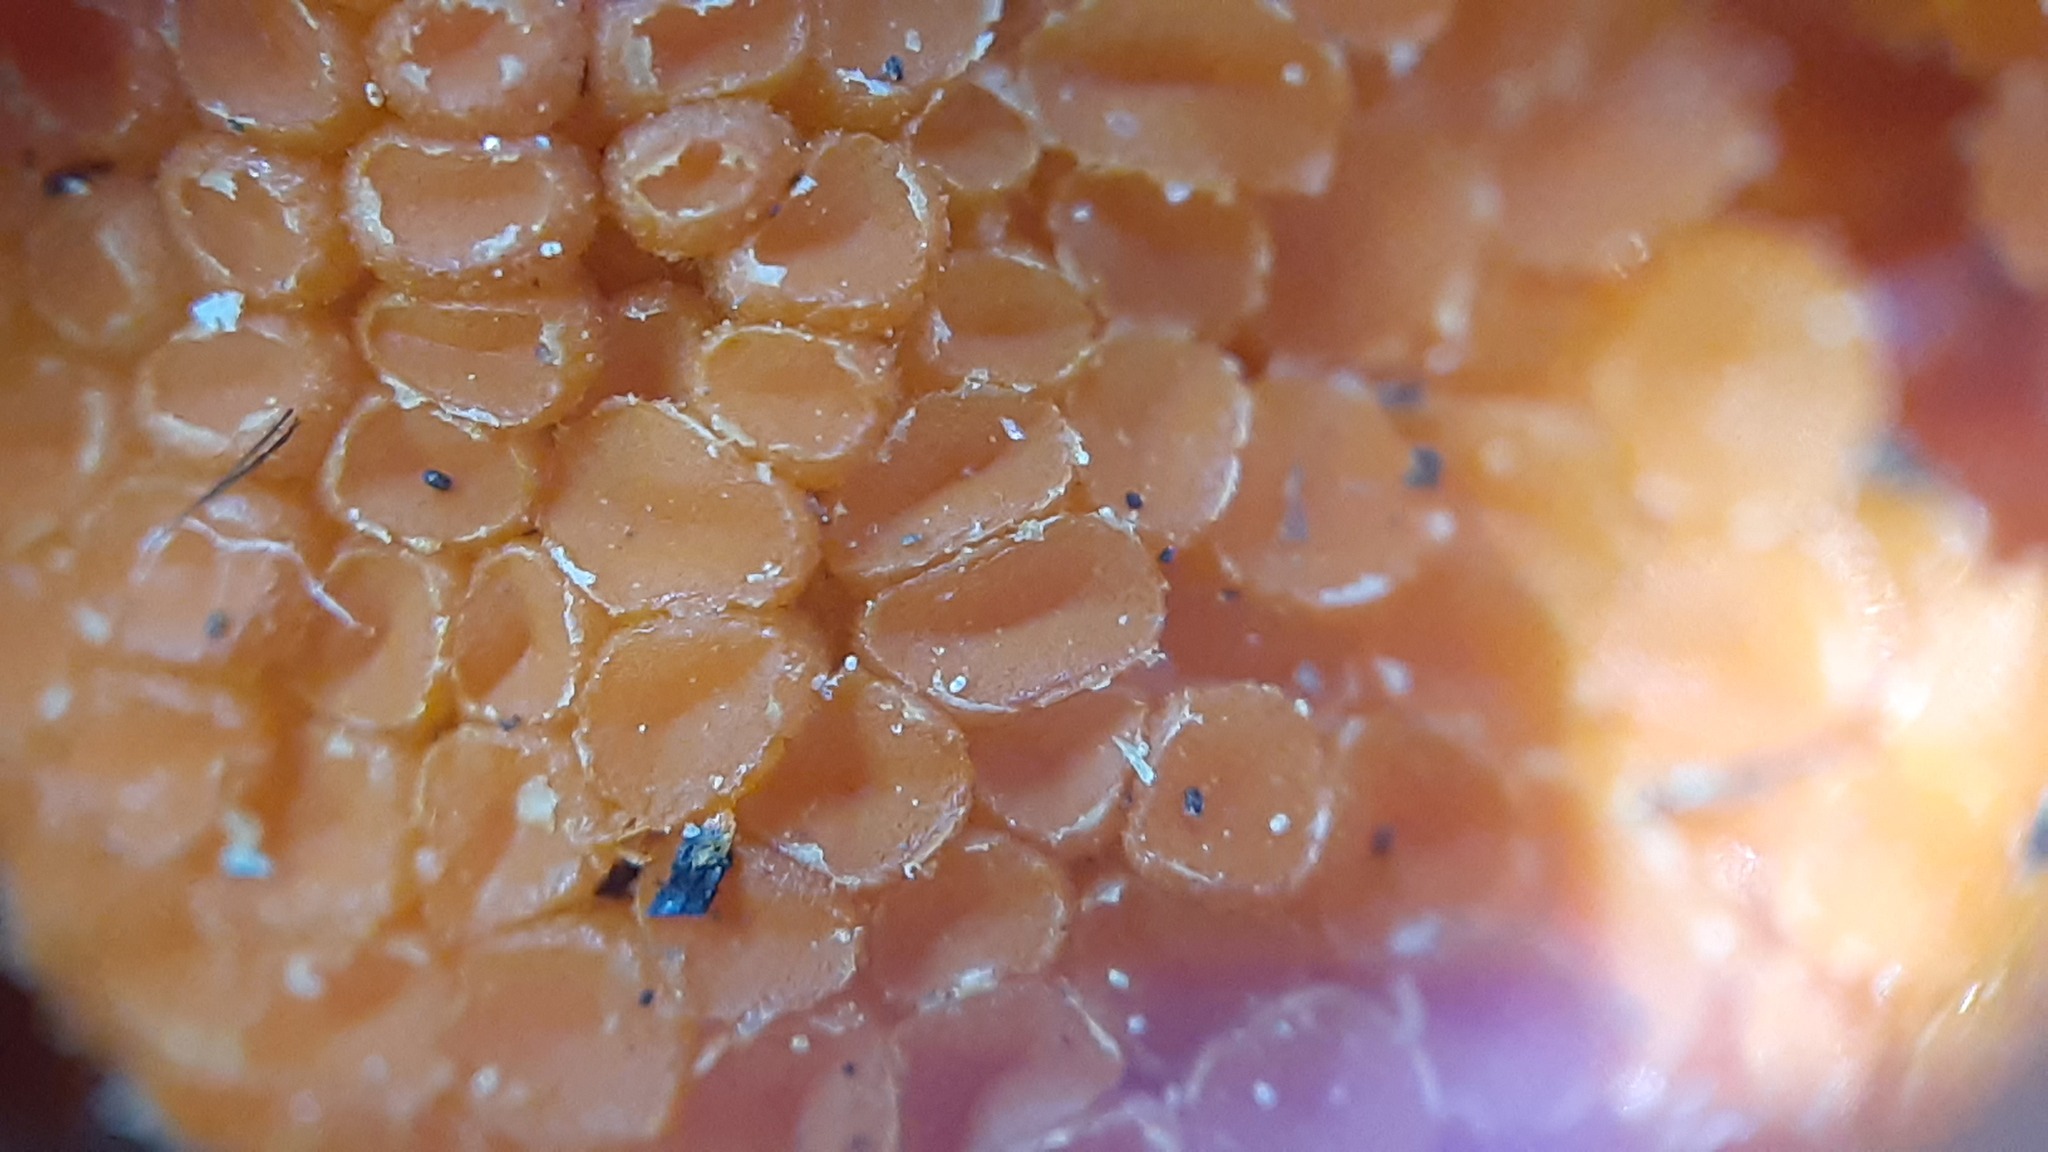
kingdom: Fungi
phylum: Ascomycota
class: Pezizomycetes
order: Pezizales
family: Pyronemataceae
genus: Byssonectria
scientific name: Byssonectria terrestris
